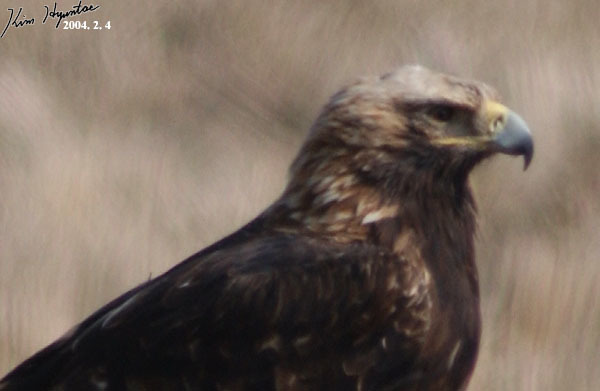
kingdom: Animalia
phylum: Chordata
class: Aves
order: Accipitriformes
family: Accipitridae
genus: Aquila
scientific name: Aquila heliaca
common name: Eastern imperial eagle
